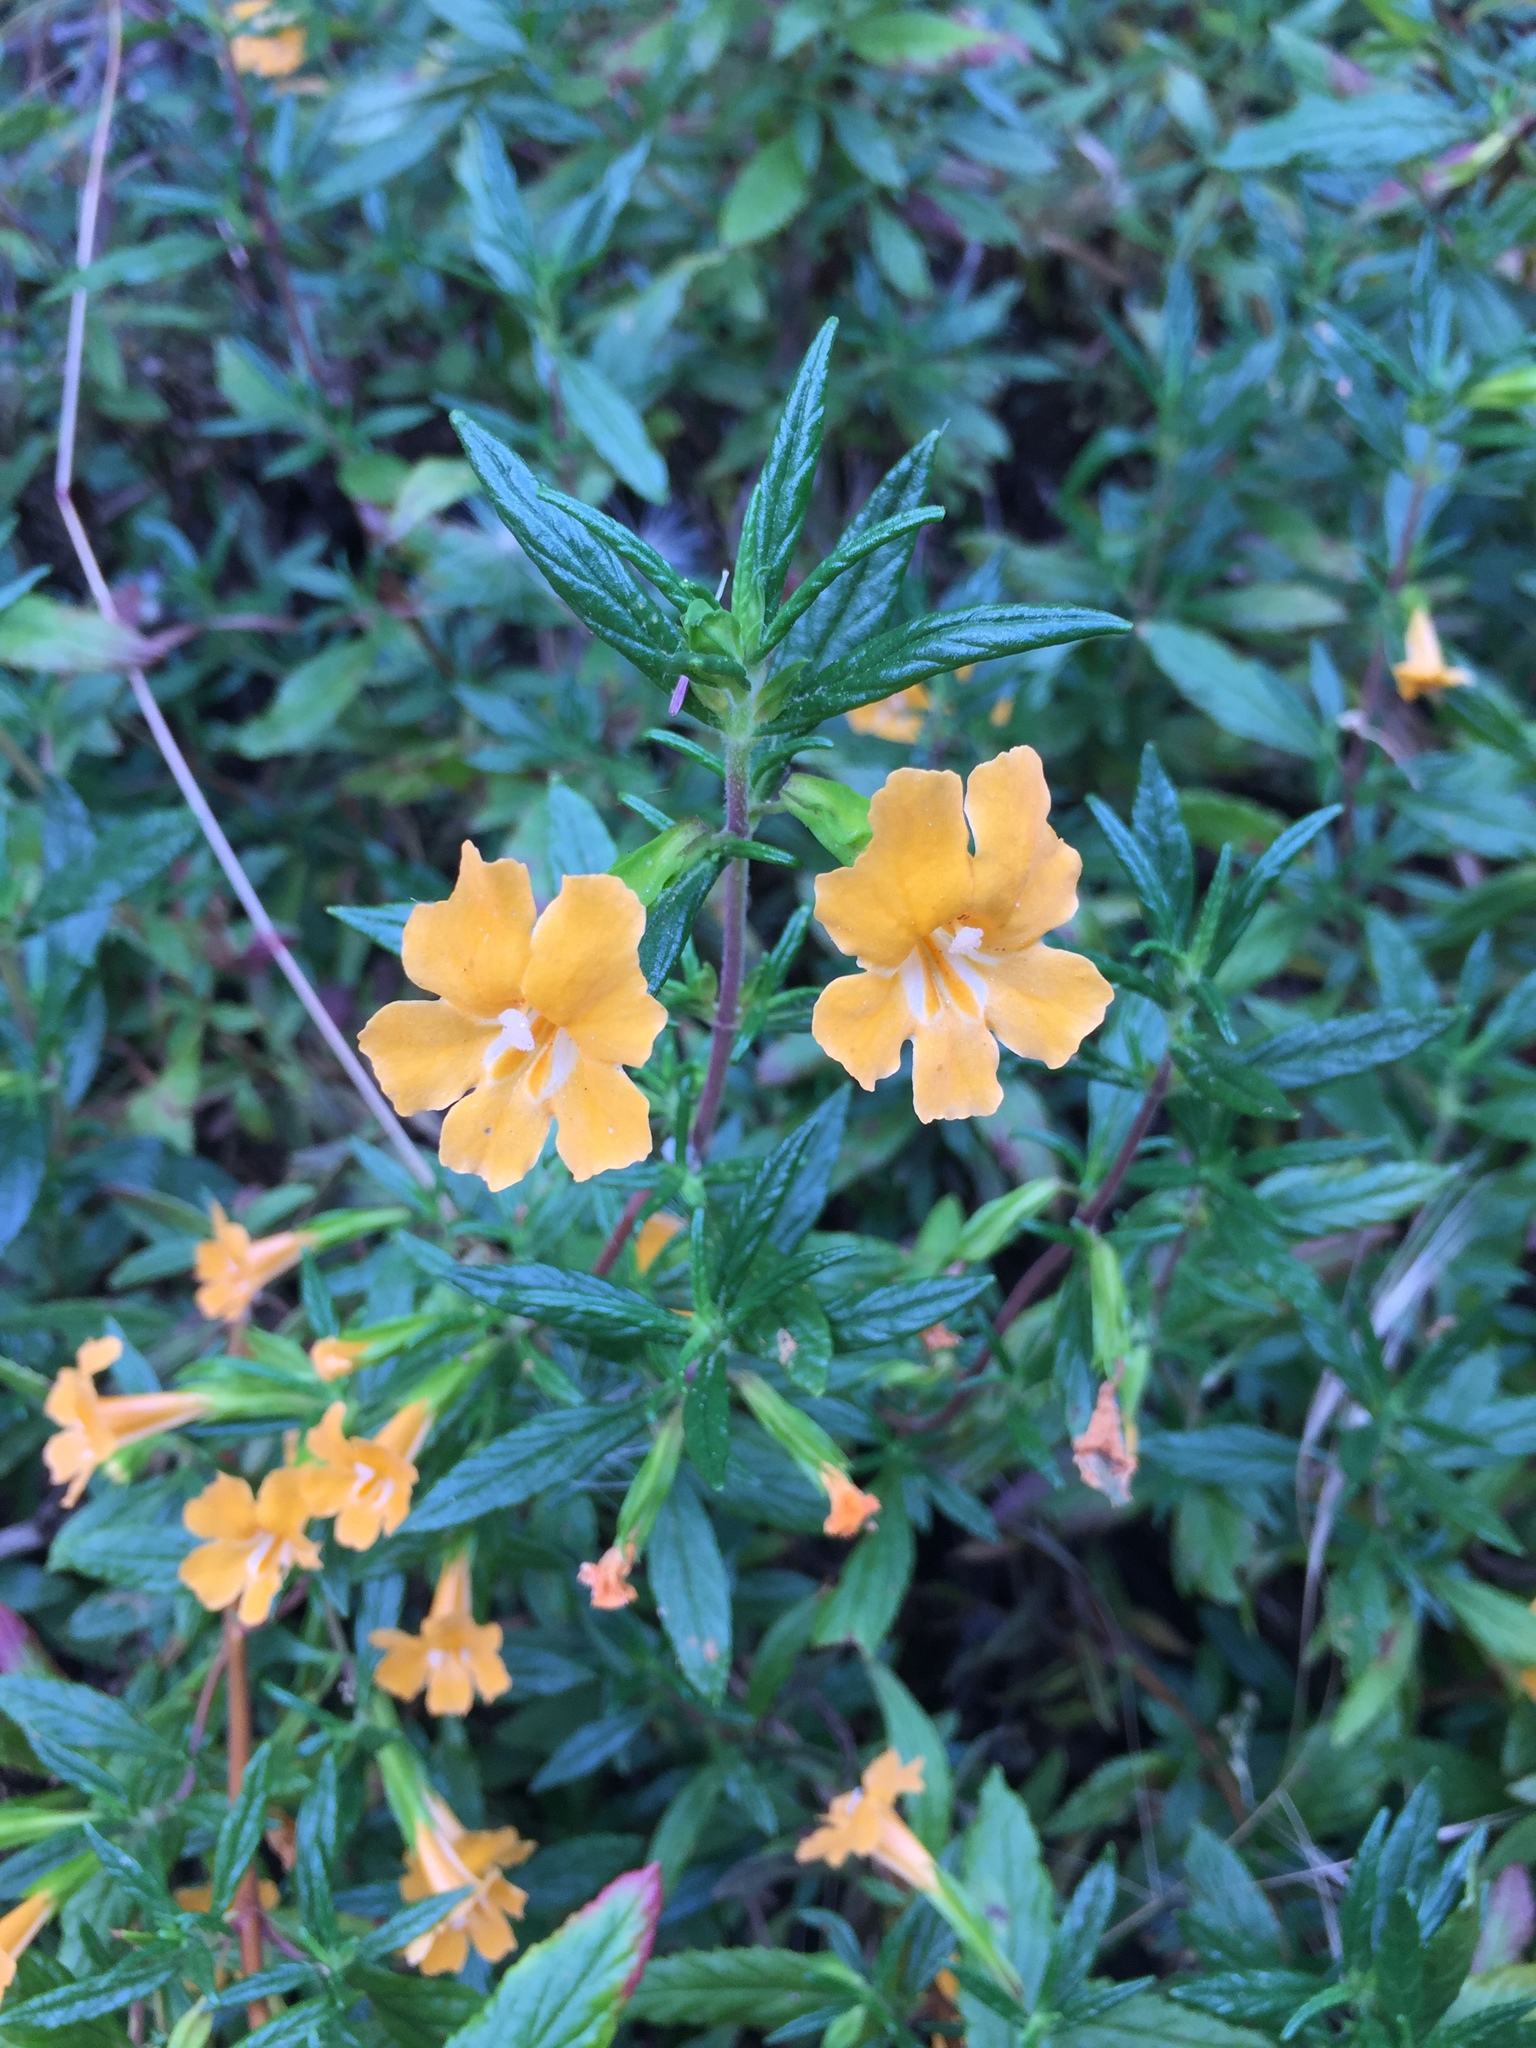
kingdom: Plantae
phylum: Tracheophyta
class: Magnoliopsida
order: Lamiales
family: Phrymaceae
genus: Diplacus
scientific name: Diplacus aurantiacus
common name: Bush monkey-flower
